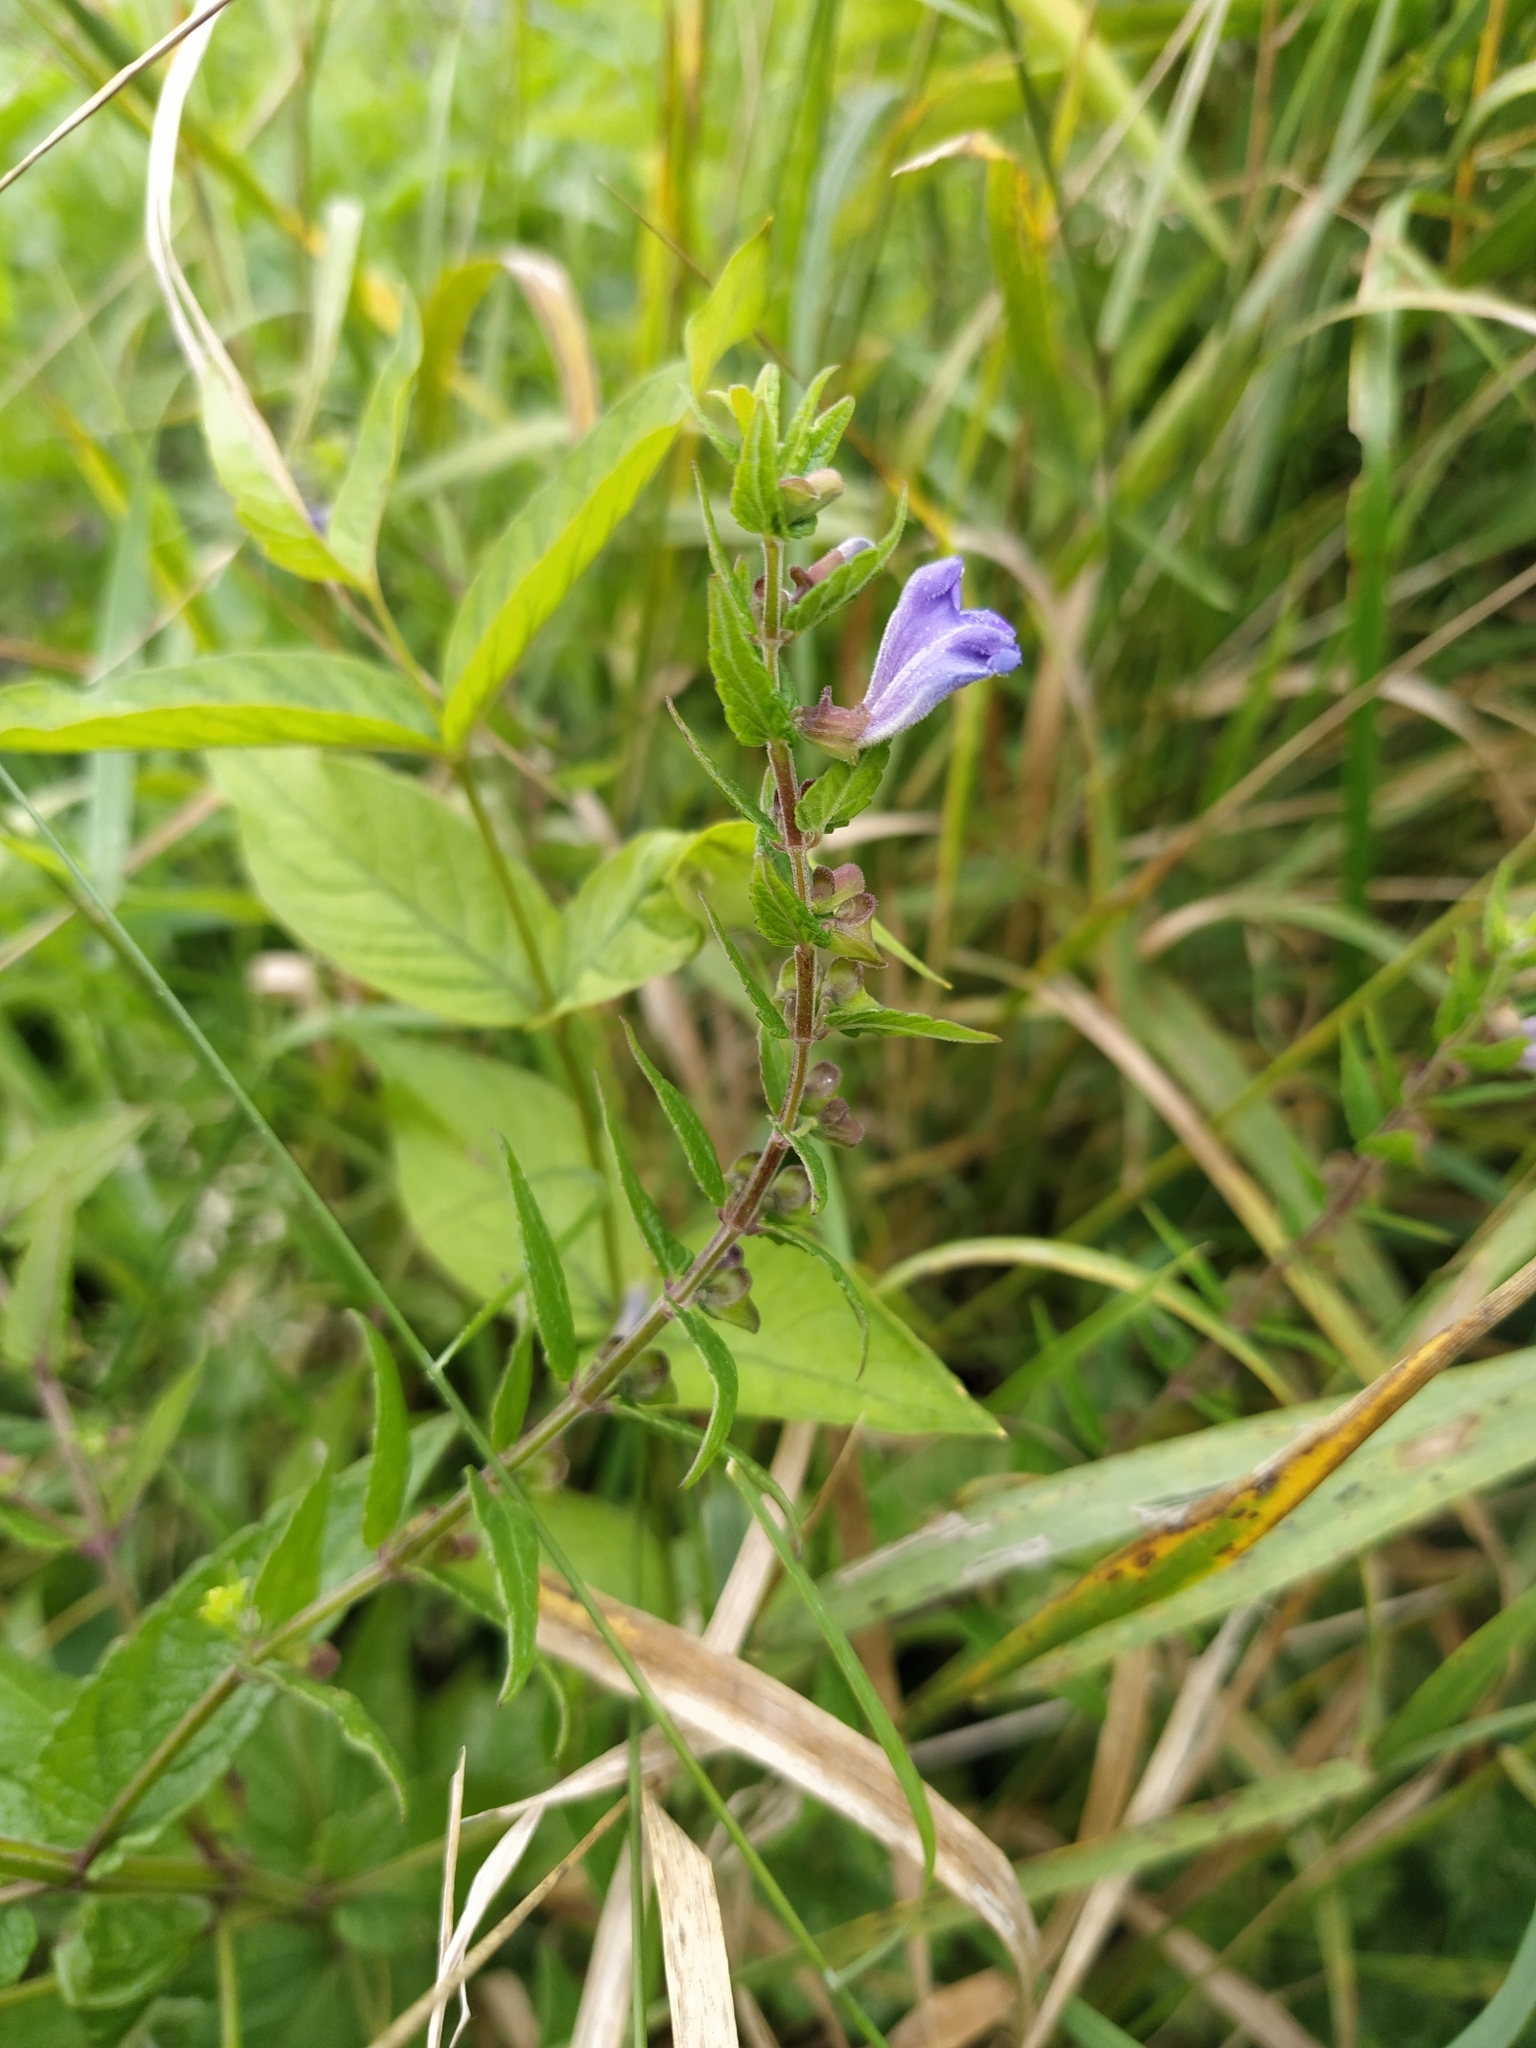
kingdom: Plantae
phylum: Tracheophyta
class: Magnoliopsida
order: Lamiales
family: Lamiaceae
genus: Scutellaria
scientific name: Scutellaria galericulata
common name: Skullcap
